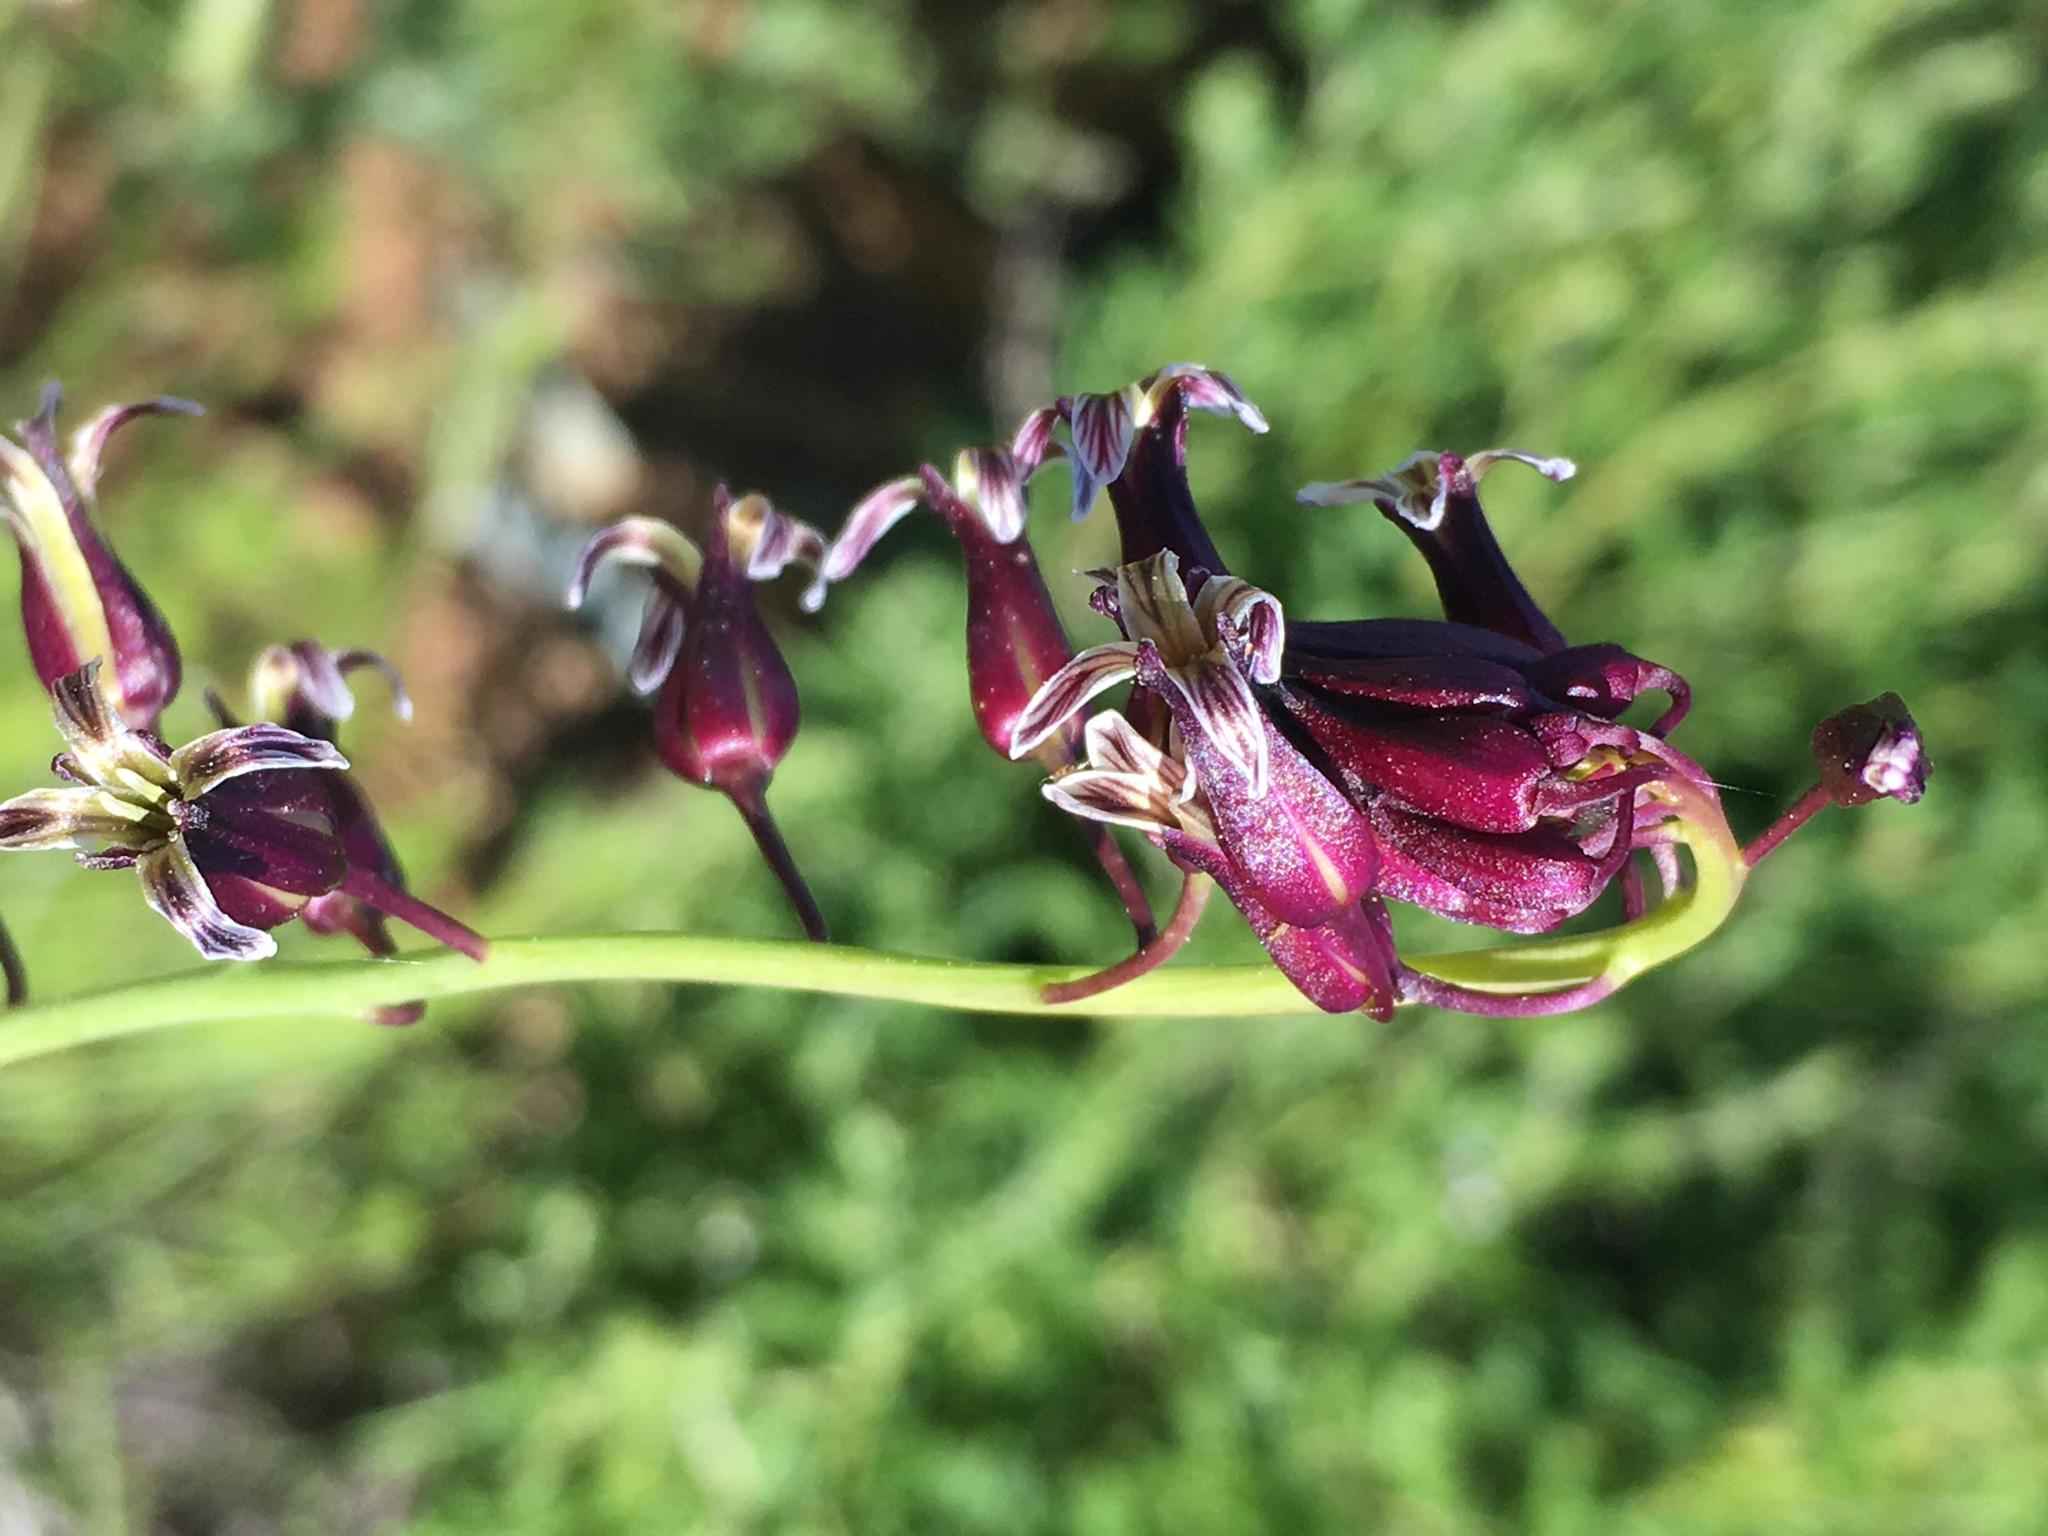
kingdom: Plantae
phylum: Tracheophyta
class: Magnoliopsida
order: Brassicales
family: Brassicaceae
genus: Streptanthus
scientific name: Streptanthus heterophyllus
